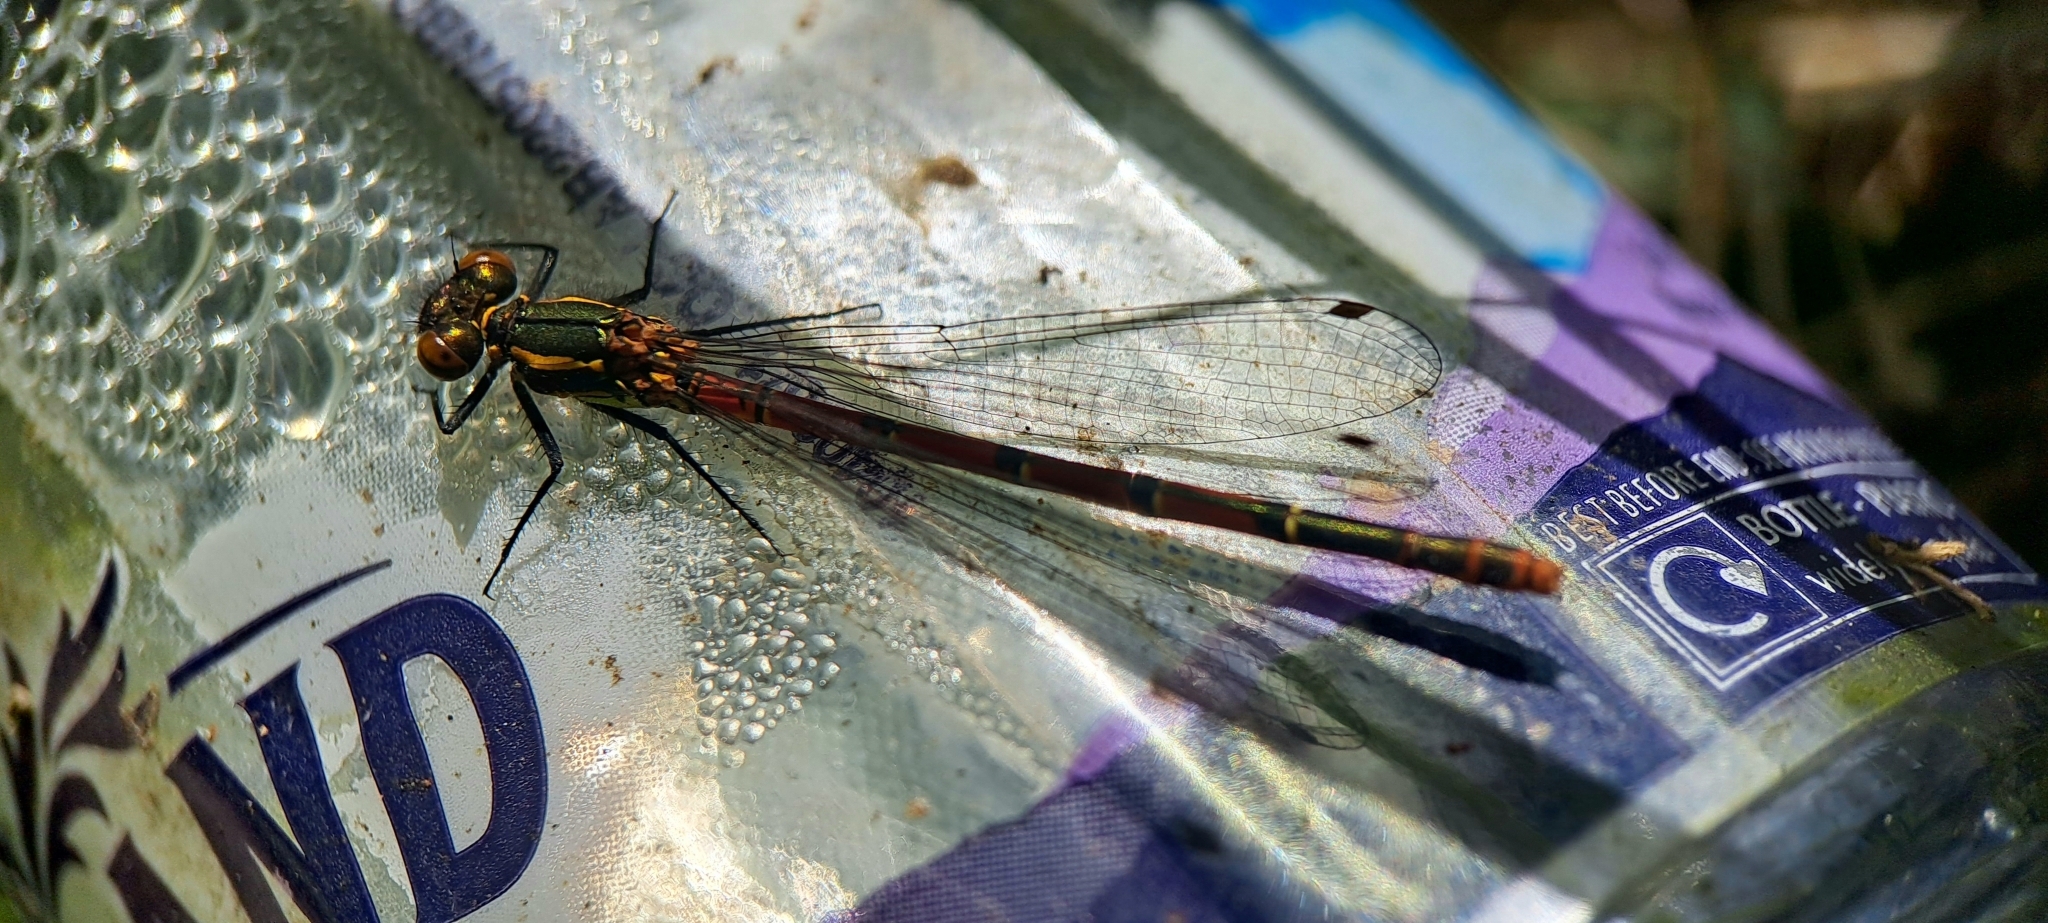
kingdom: Animalia
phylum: Arthropoda
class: Insecta
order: Odonata
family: Coenagrionidae
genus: Pyrrhosoma
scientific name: Pyrrhosoma nymphula
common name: Large red damsel
